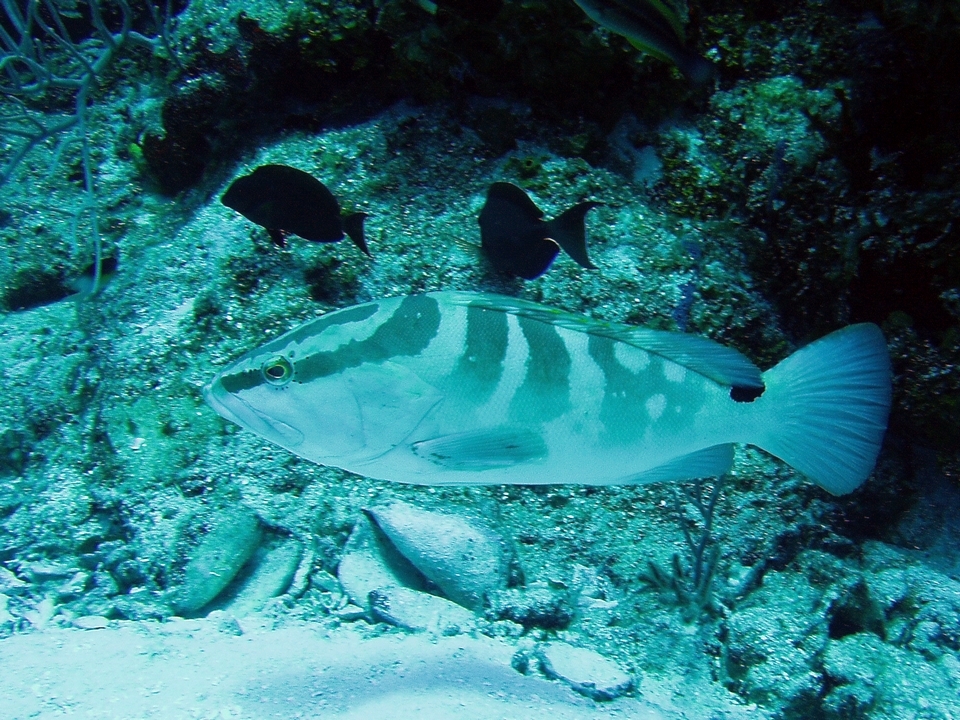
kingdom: Animalia
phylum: Chordata
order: Perciformes
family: Serranidae
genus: Epinephelus
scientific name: Epinephelus striatus
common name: Nassau grouper
